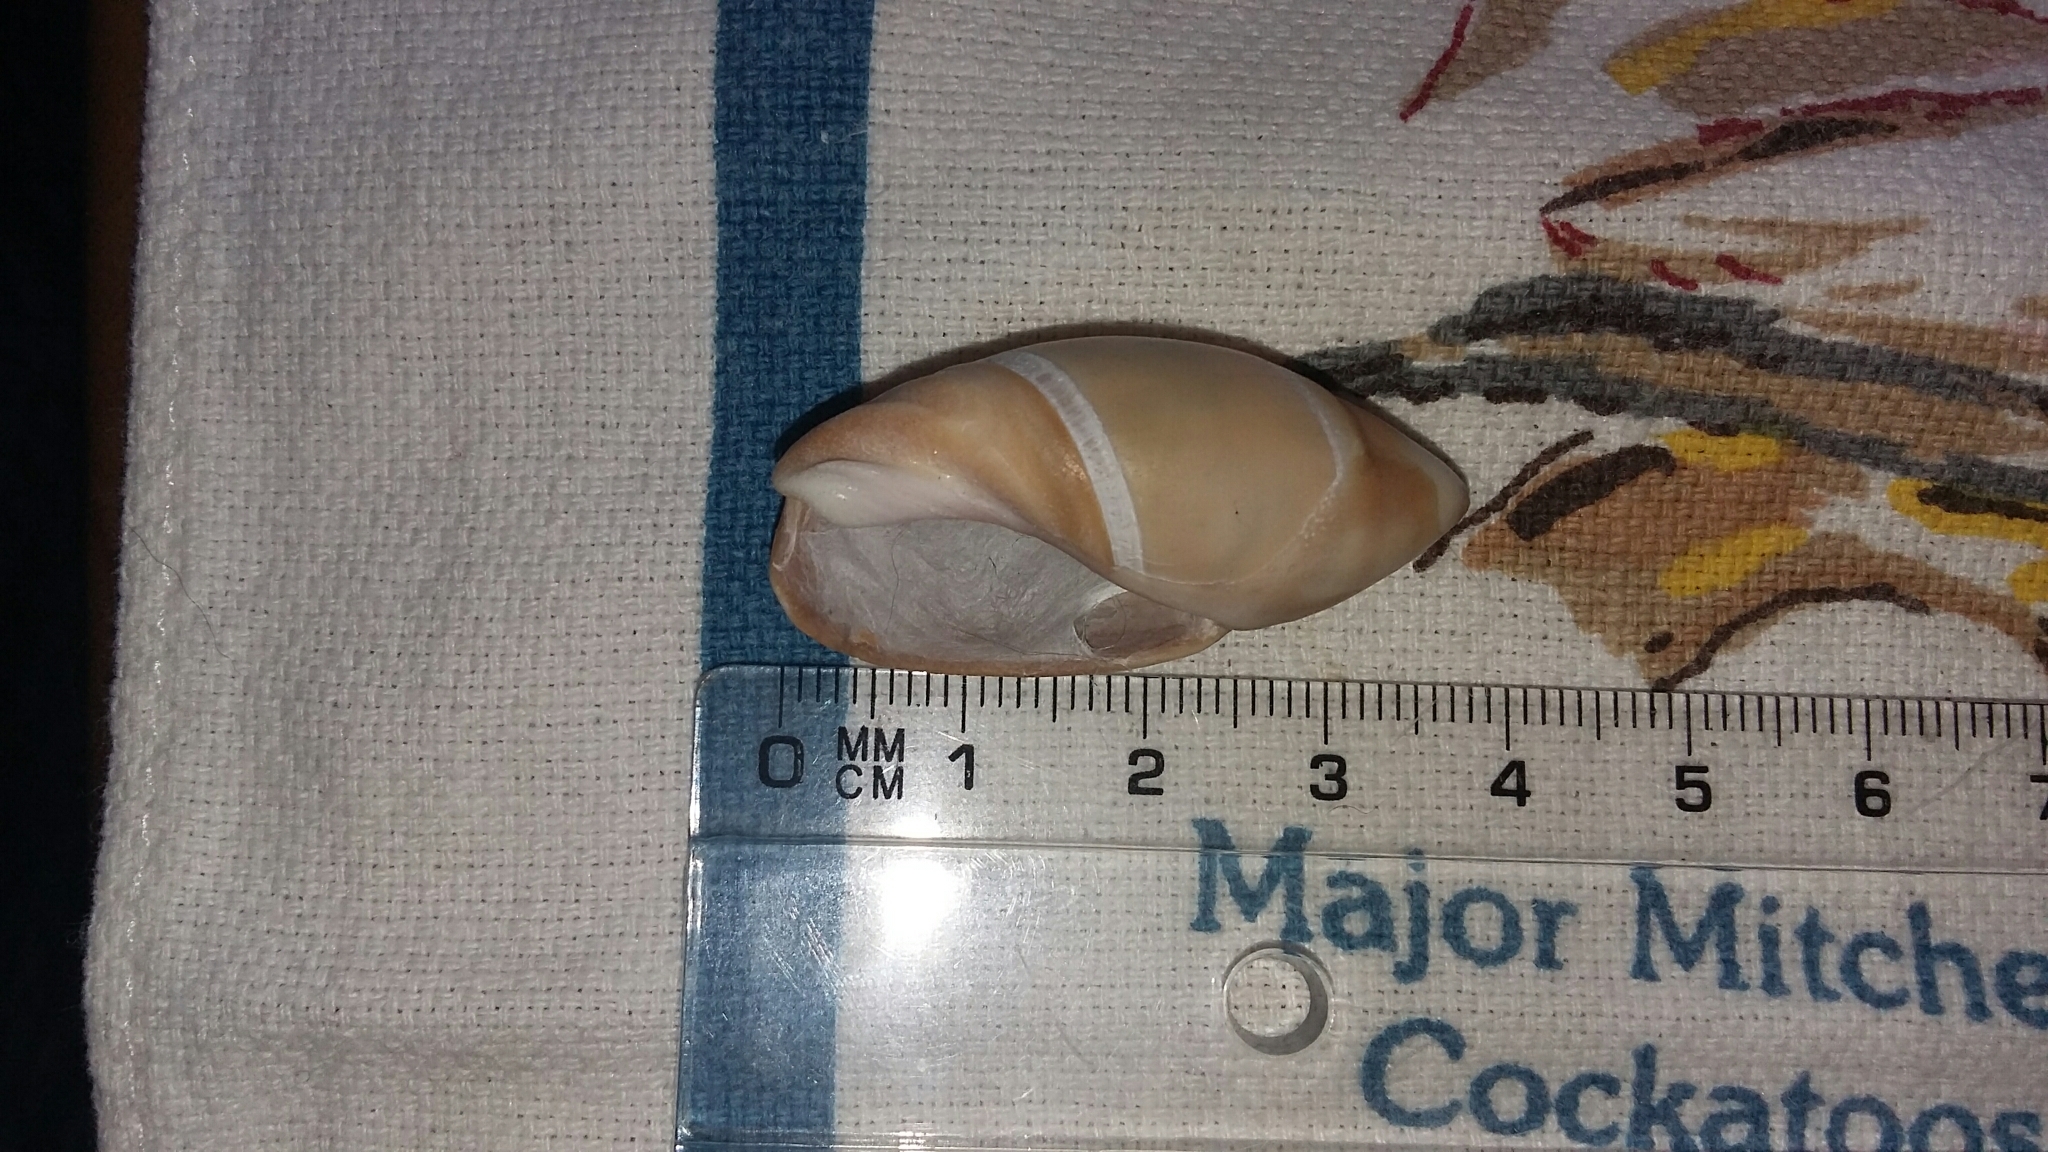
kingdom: Animalia
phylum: Mollusca
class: Gastropoda
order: Neogastropoda
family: Ancillariidae
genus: Amalda
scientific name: Amalda mucronata
